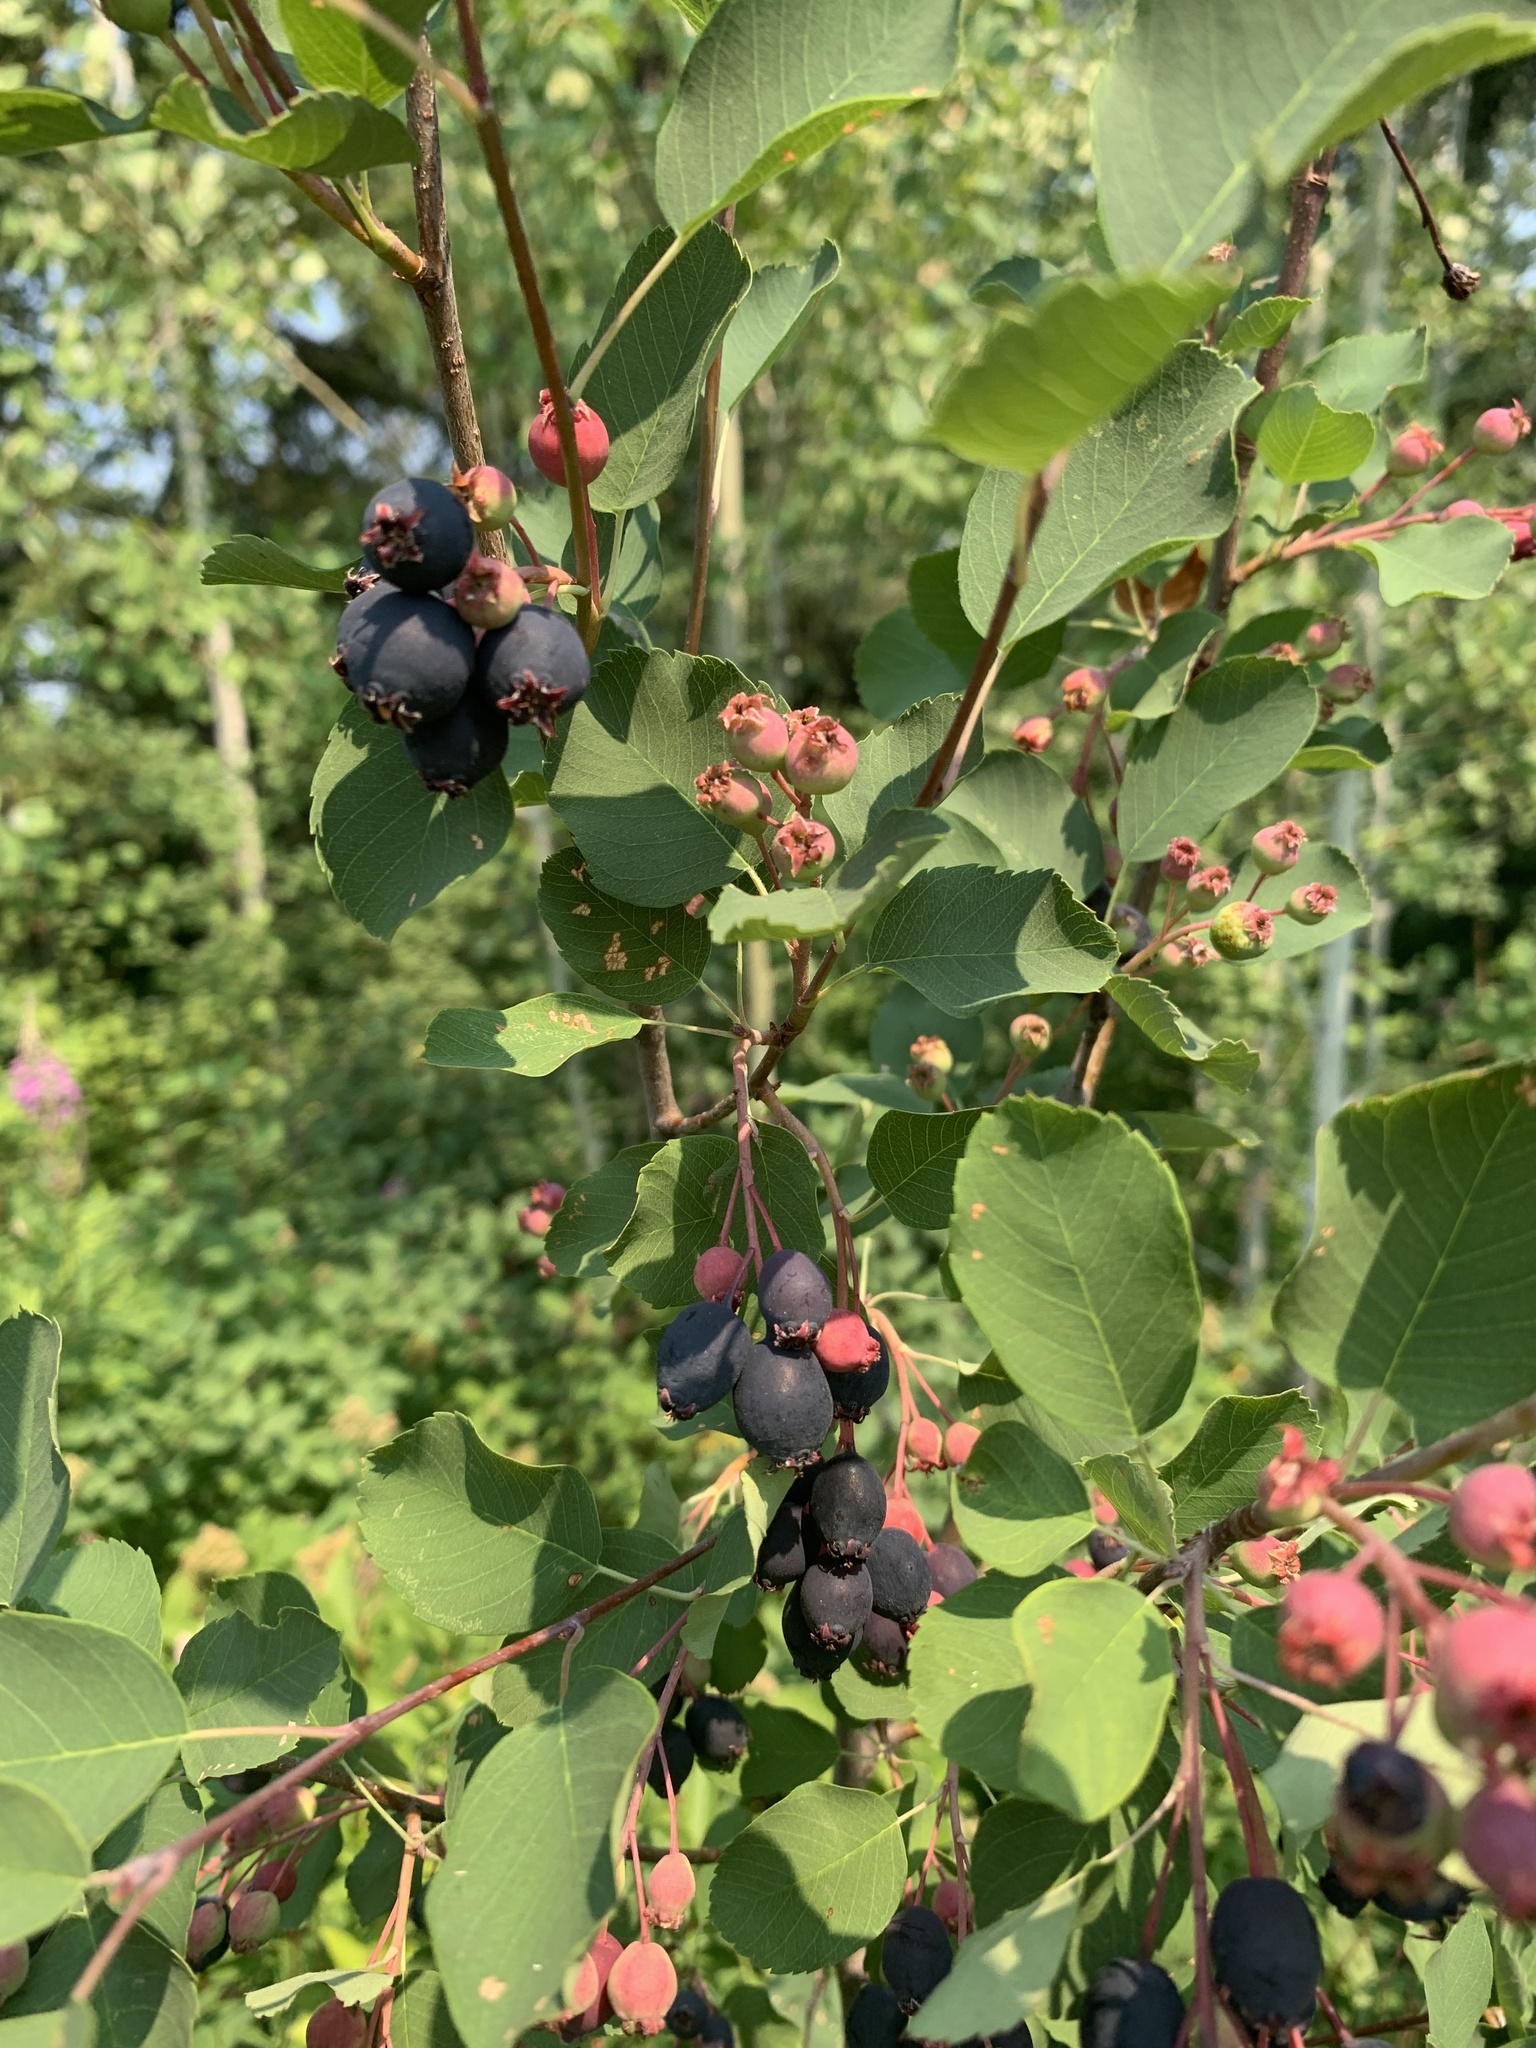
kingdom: Plantae
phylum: Tracheophyta
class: Magnoliopsida
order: Rosales
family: Rosaceae
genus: Amelanchier
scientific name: Amelanchier alnifolia
